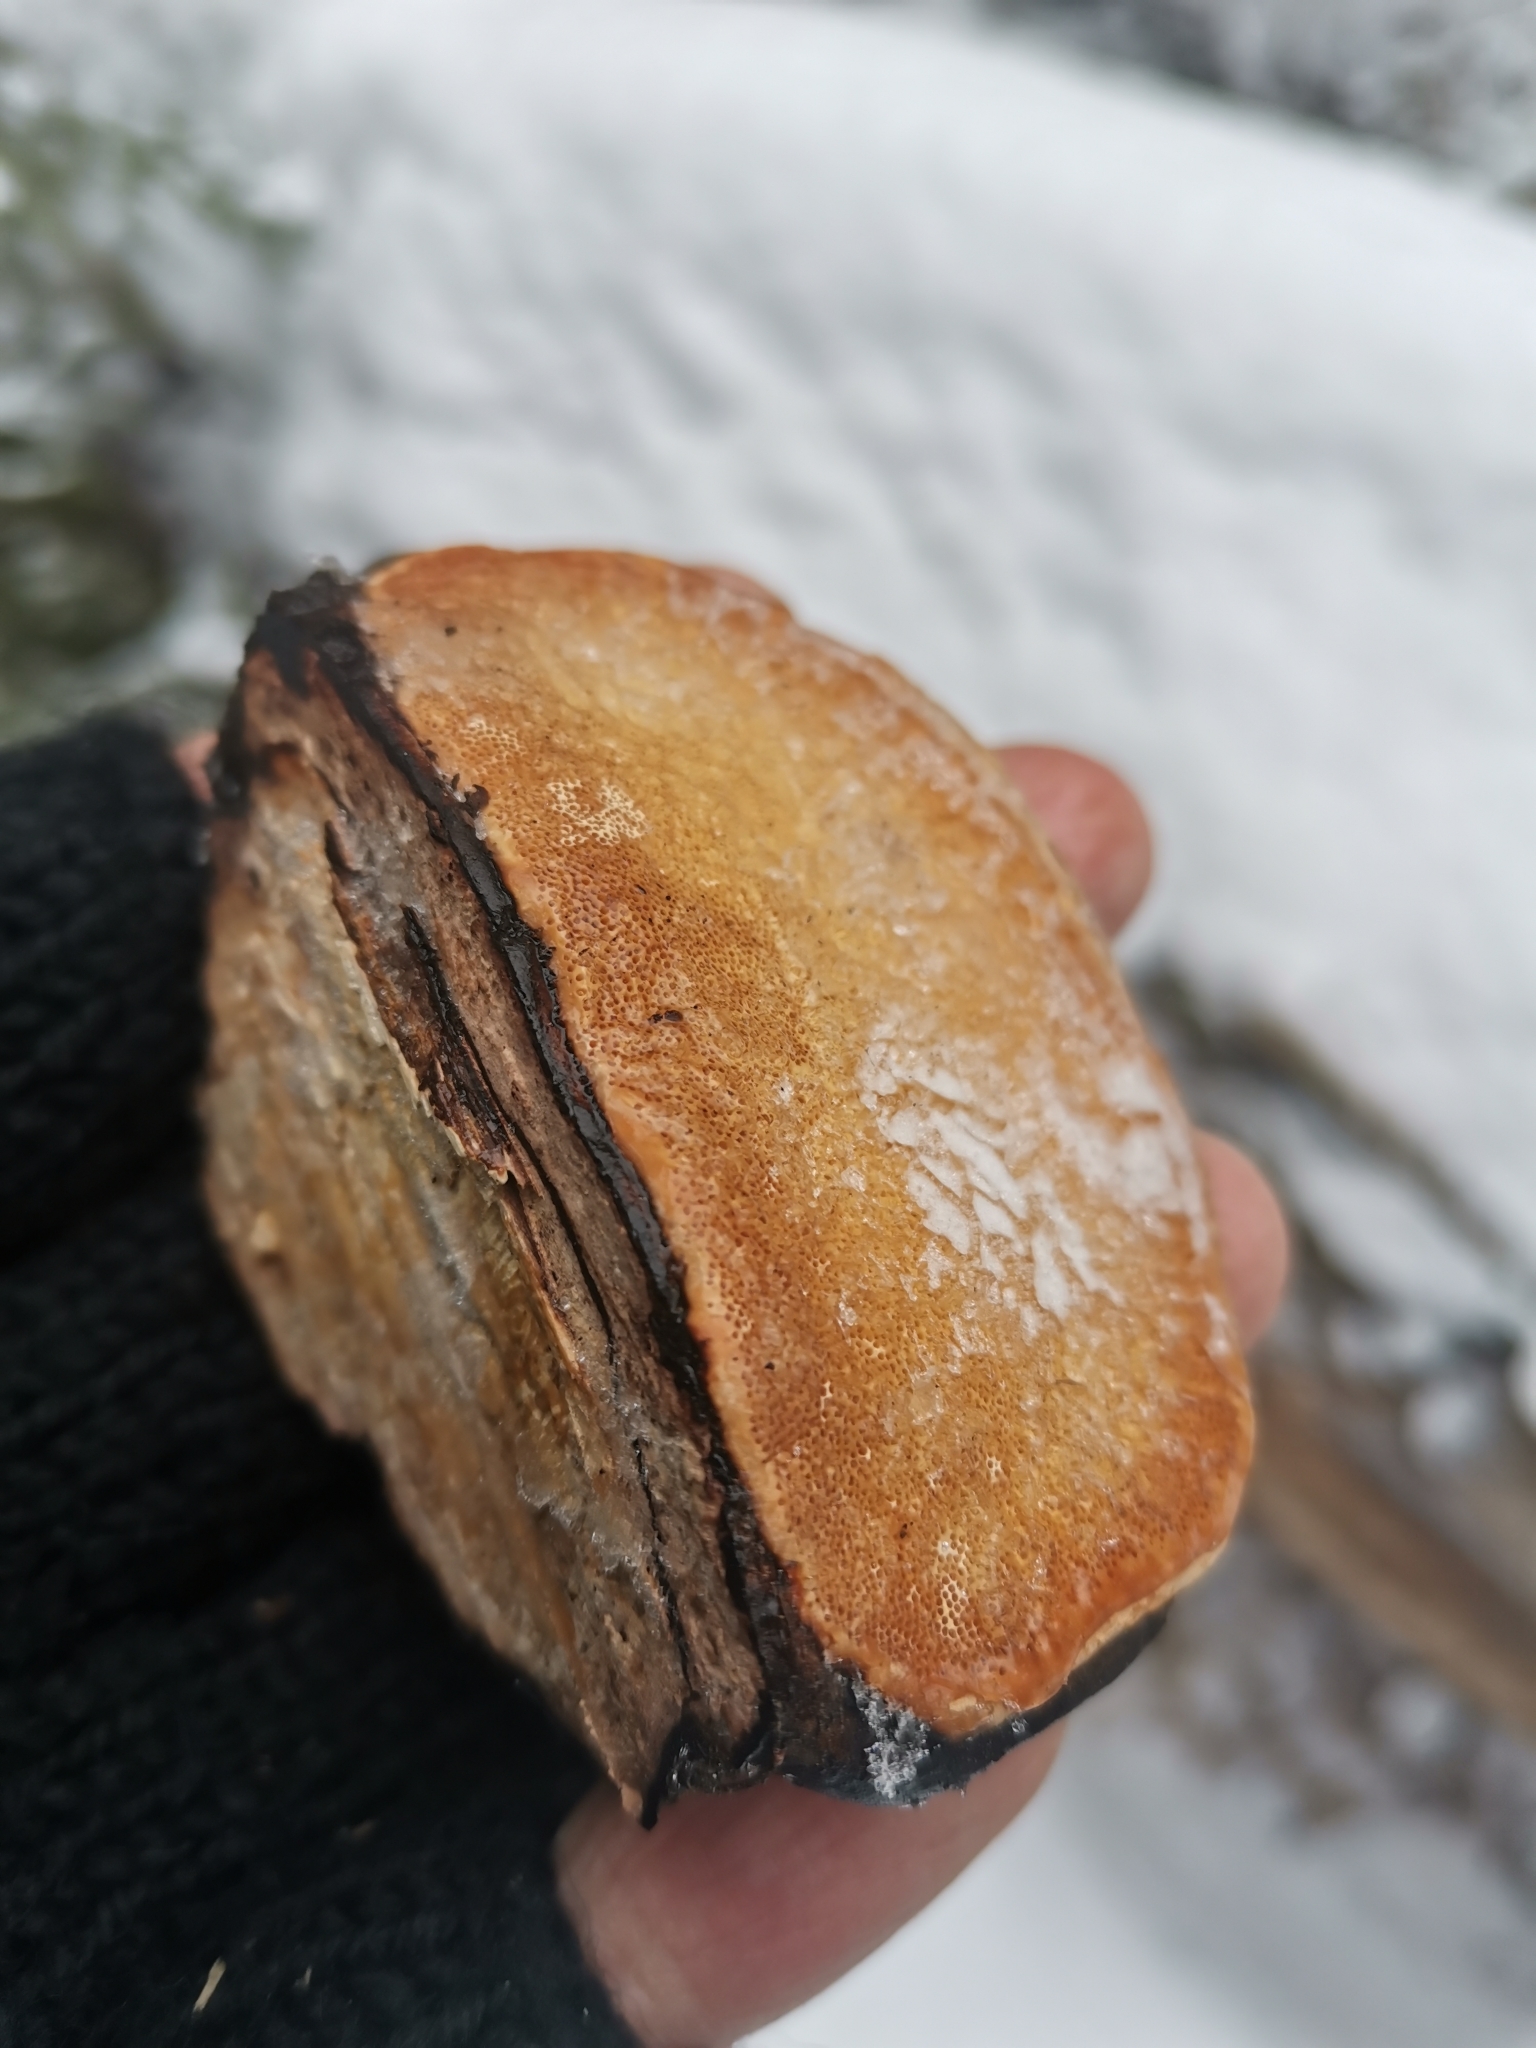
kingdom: Fungi
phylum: Basidiomycota
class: Agaricomycetes
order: Polyporales
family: Fomitopsidaceae
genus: Fomitopsis
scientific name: Fomitopsis pinicola
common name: Red-belted bracket
